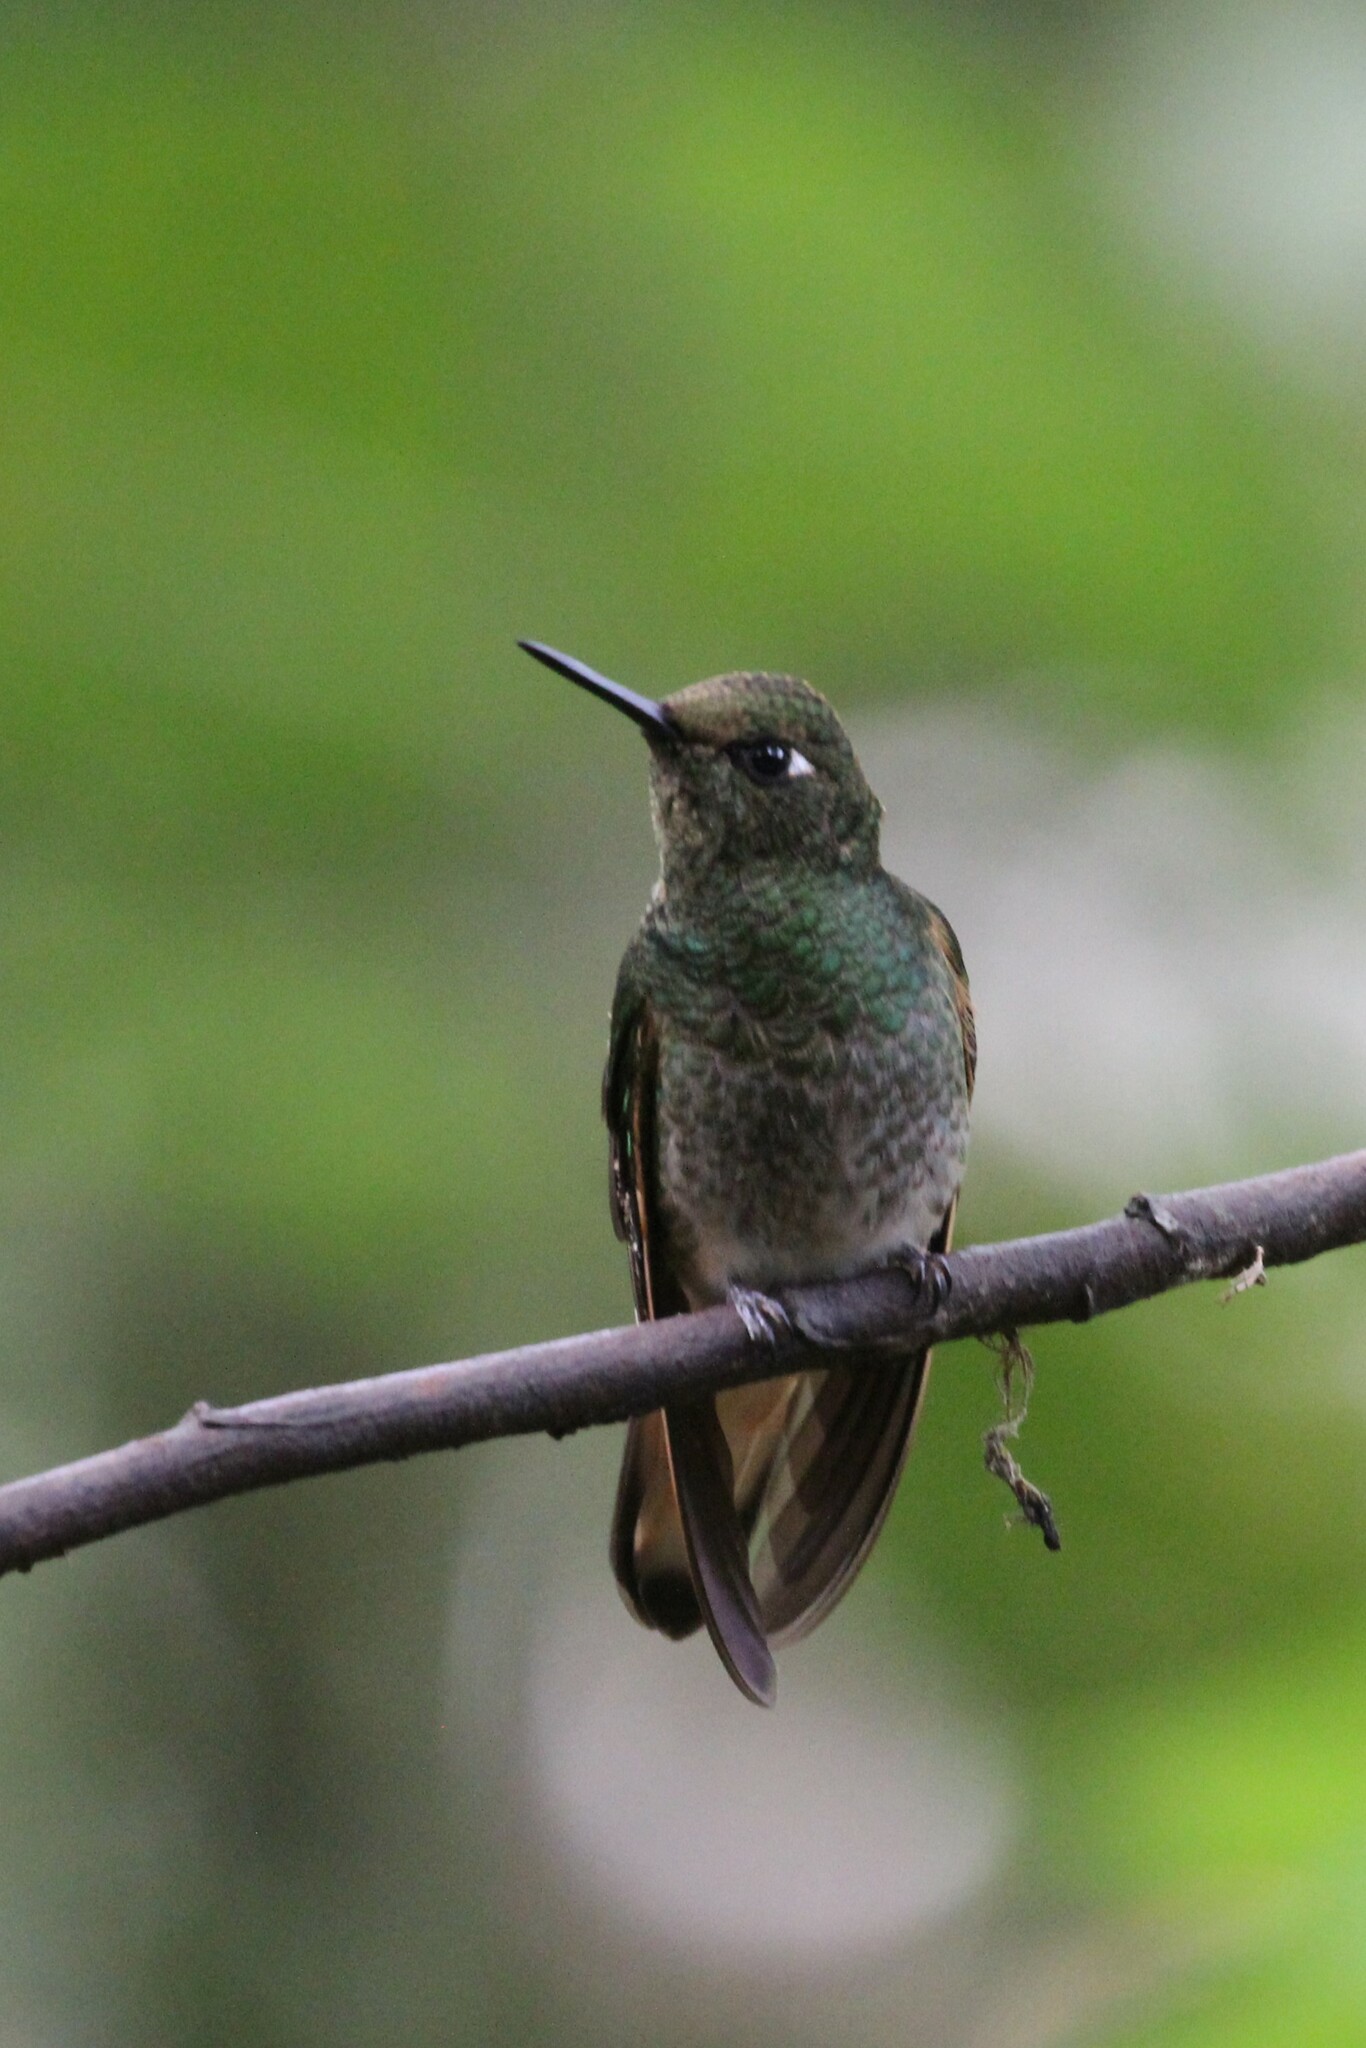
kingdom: Animalia
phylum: Chordata
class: Aves
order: Apodiformes
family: Trochilidae
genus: Boissonneaua
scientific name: Boissonneaua flavescens
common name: Buff-tailed coronet
